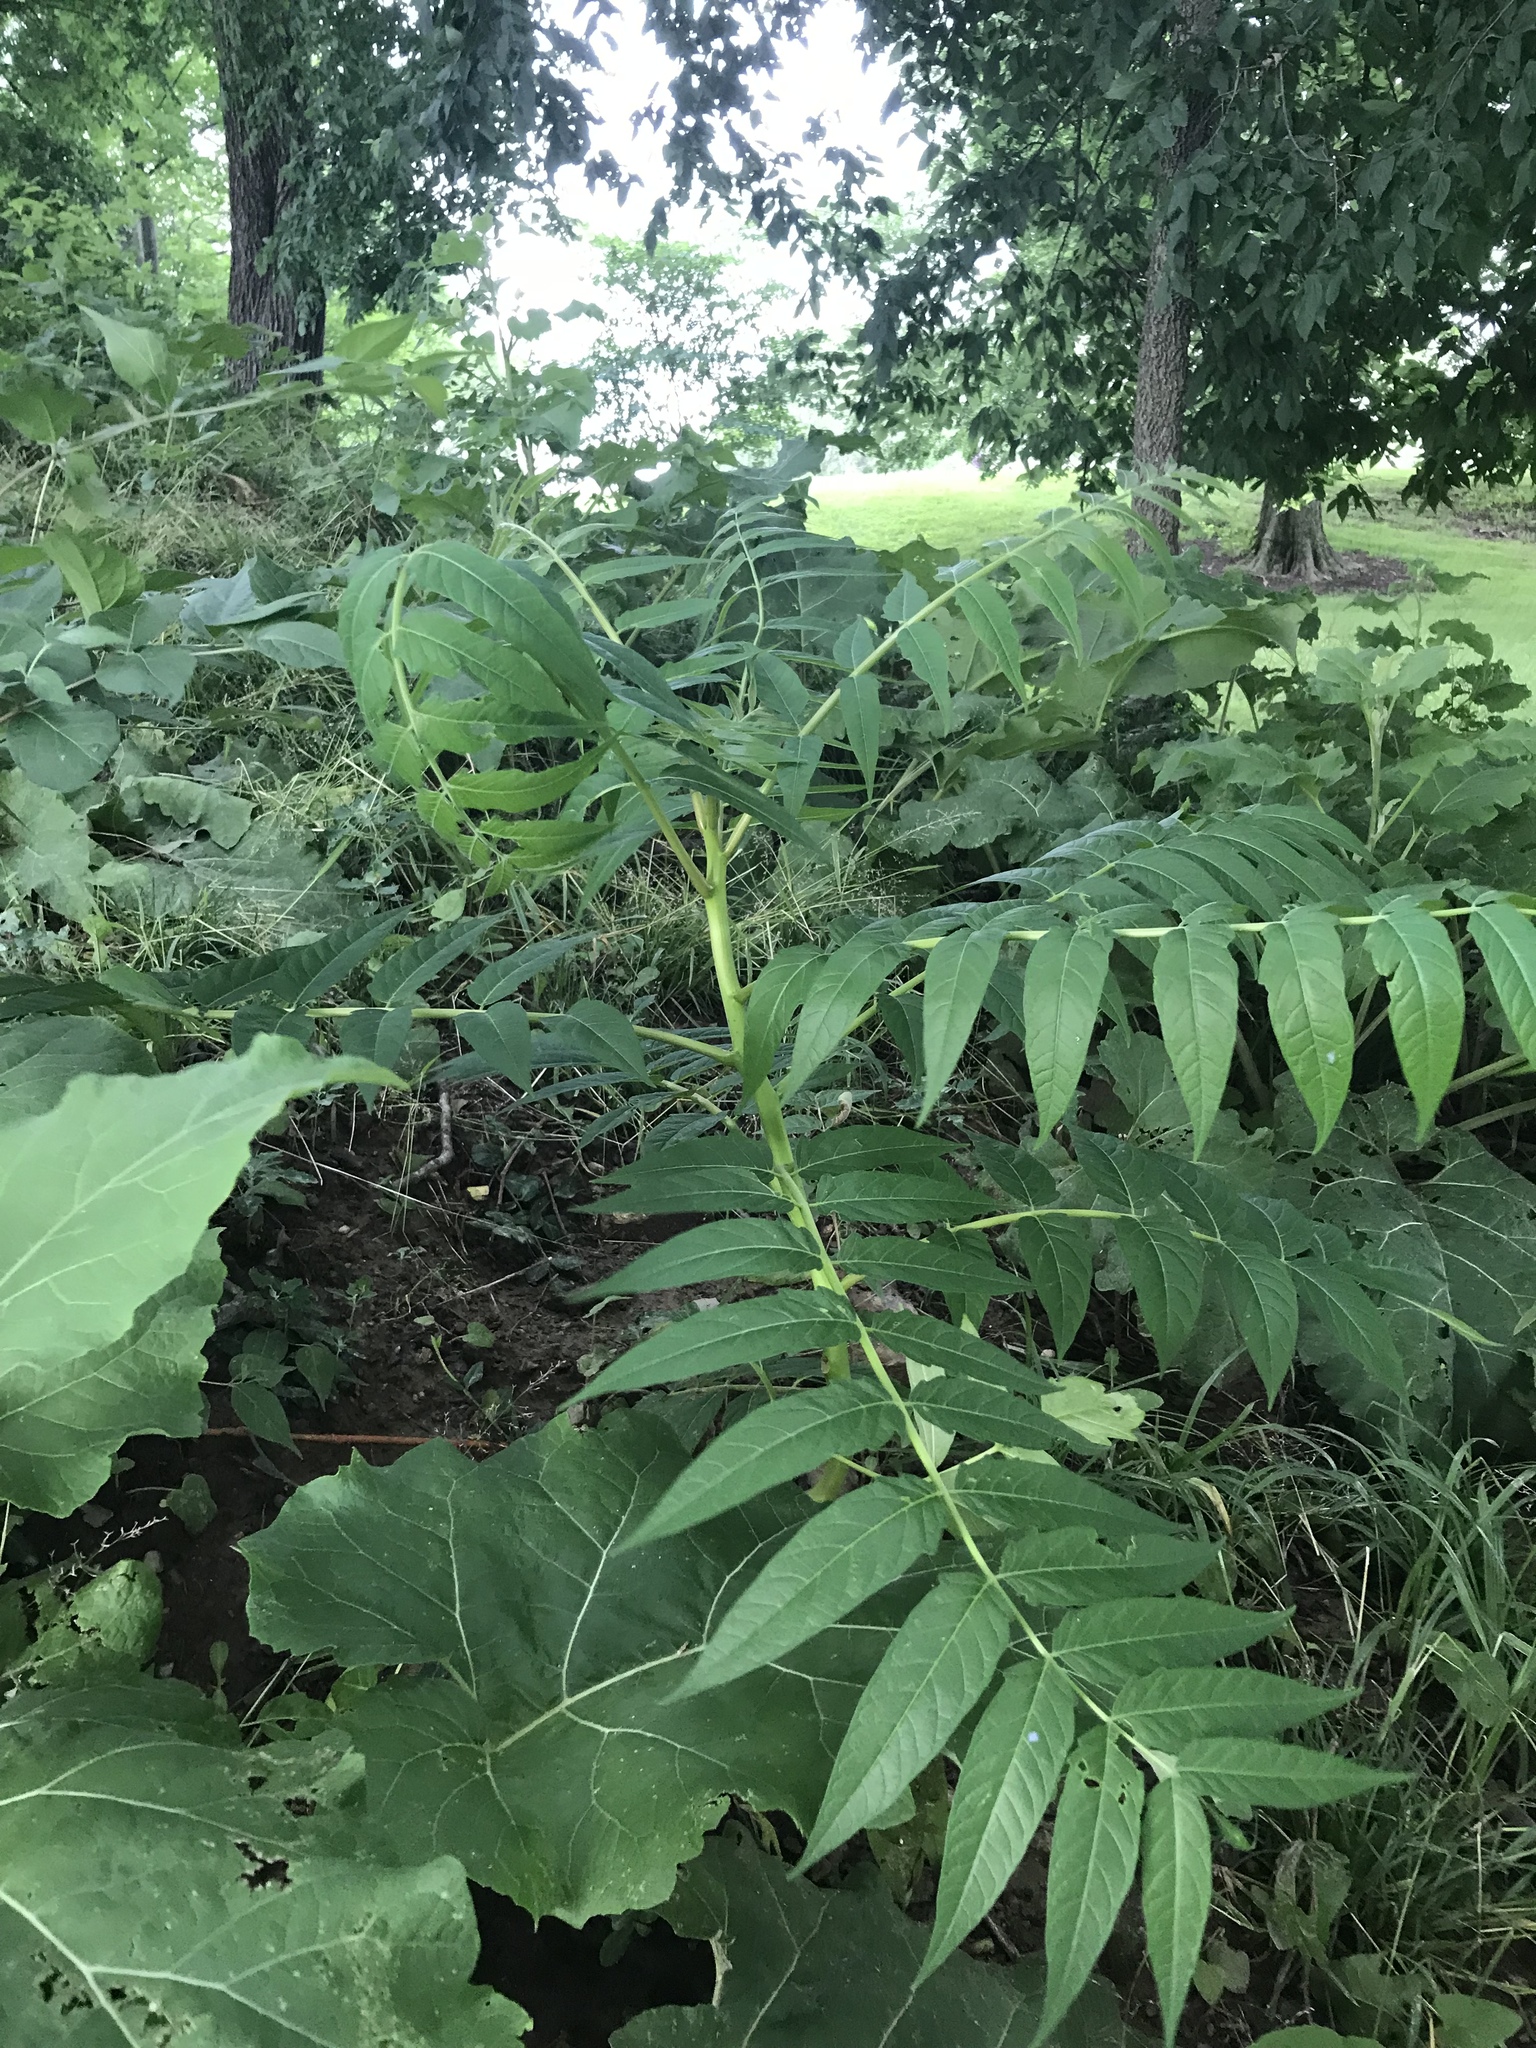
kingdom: Plantae
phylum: Tracheophyta
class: Magnoliopsida
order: Sapindales
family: Simaroubaceae
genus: Ailanthus
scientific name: Ailanthus altissima
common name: Tree-of-heaven
